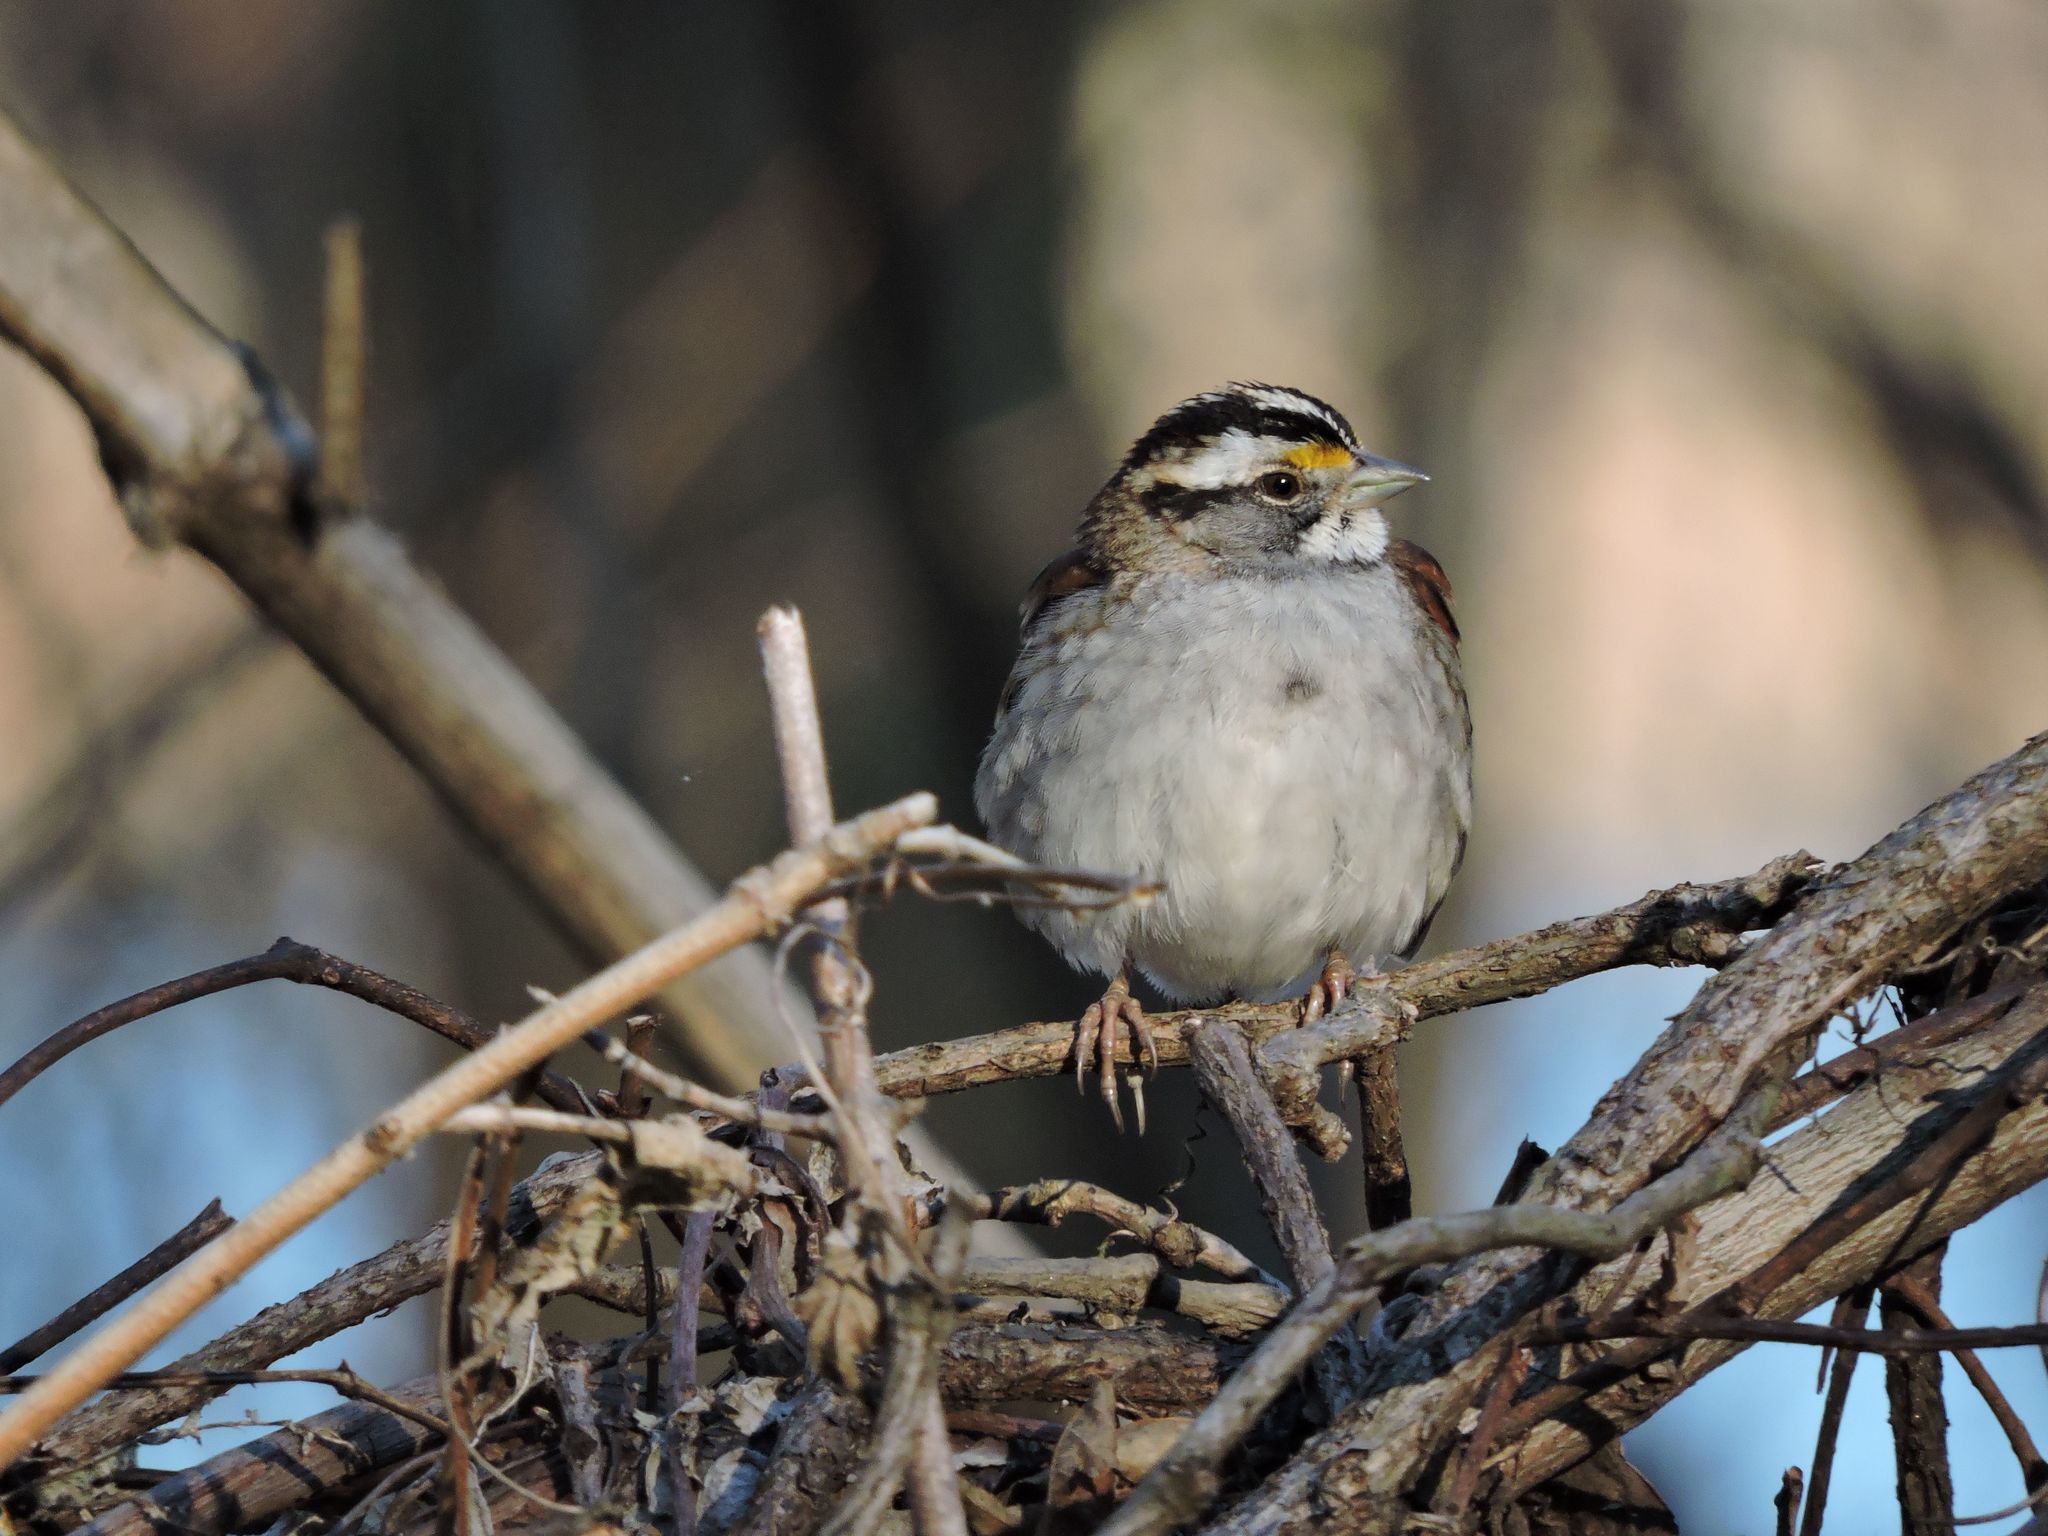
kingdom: Animalia
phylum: Chordata
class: Aves
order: Passeriformes
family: Passerellidae
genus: Zonotrichia
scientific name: Zonotrichia albicollis
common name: White-throated sparrow
